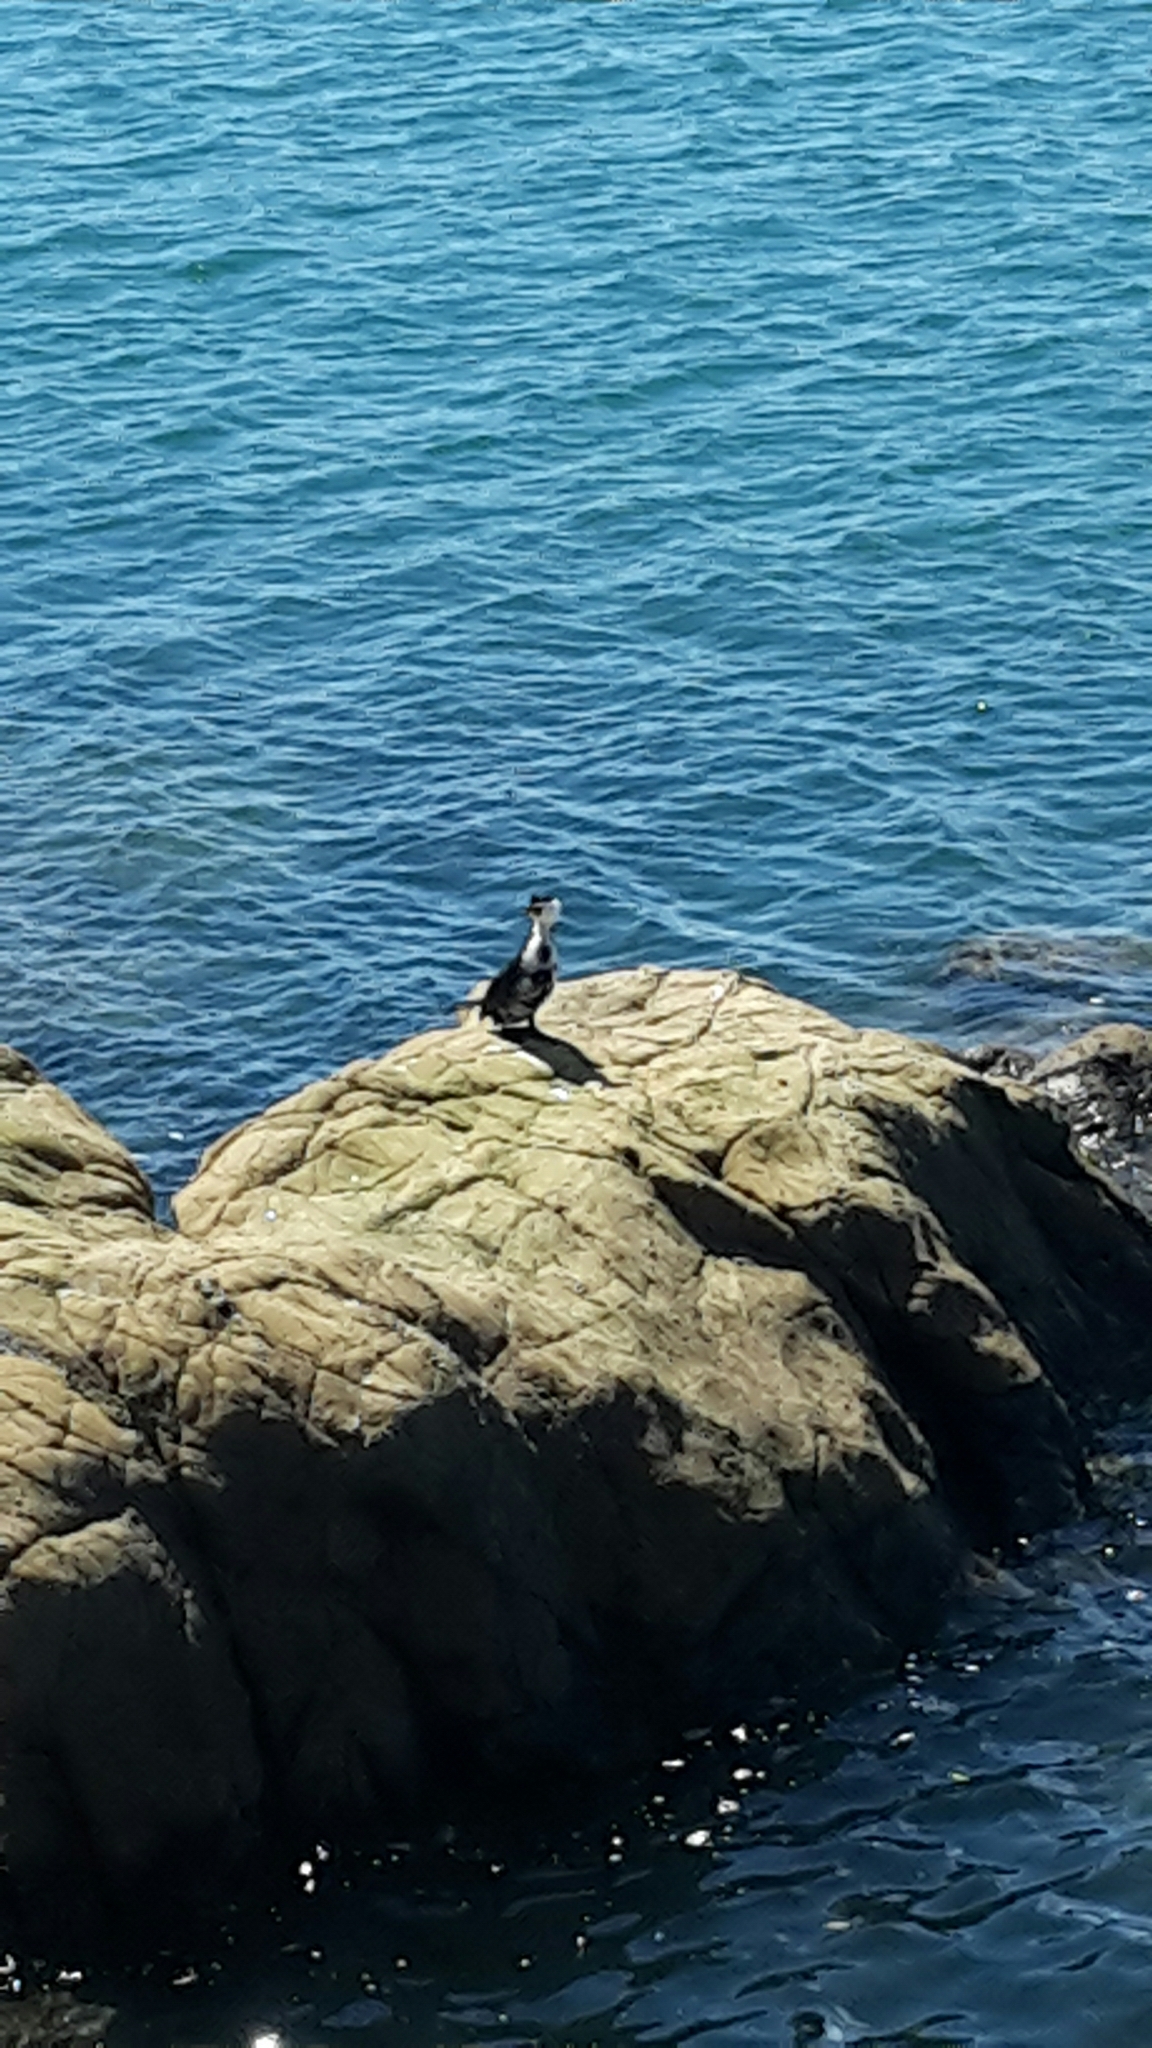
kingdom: Animalia
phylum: Chordata
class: Aves
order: Suliformes
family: Phalacrocoracidae
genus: Phalacrocorax
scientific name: Phalacrocorax varius
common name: Pied cormorant
